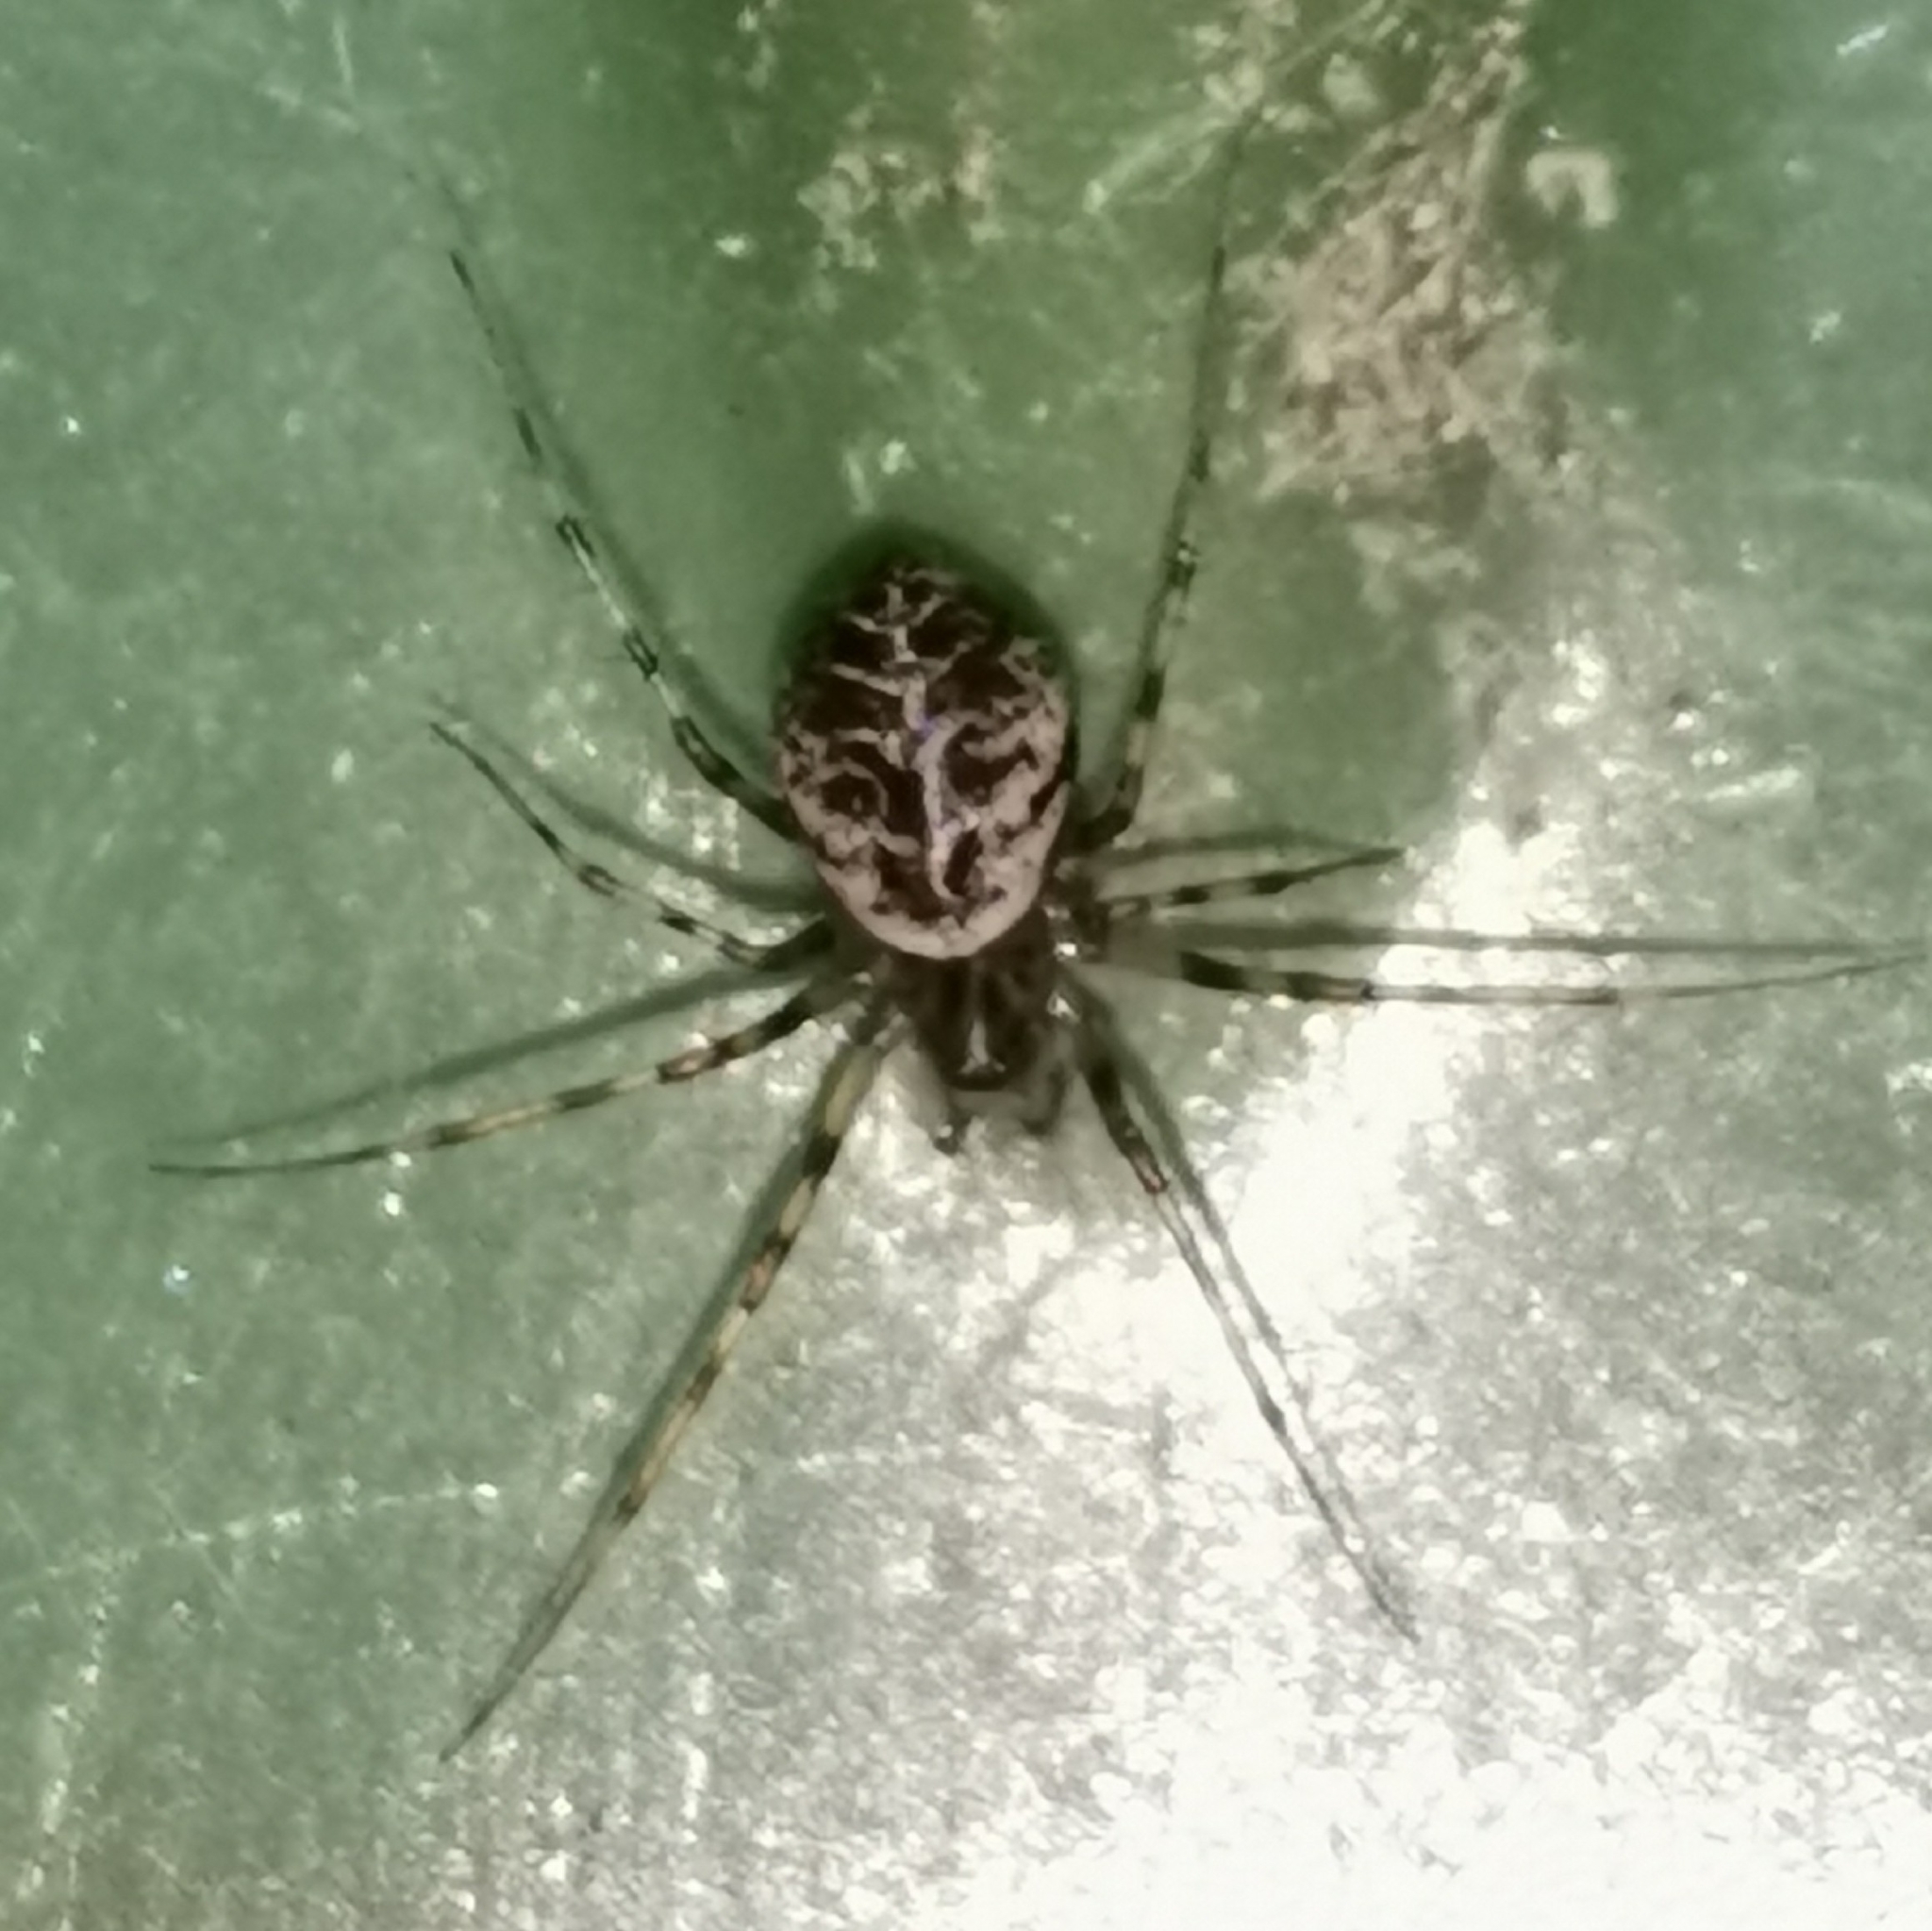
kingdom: Animalia
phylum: Arthropoda
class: Arachnida
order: Araneae
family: Linyphiidae
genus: Drapetisca
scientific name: Drapetisca socialis
